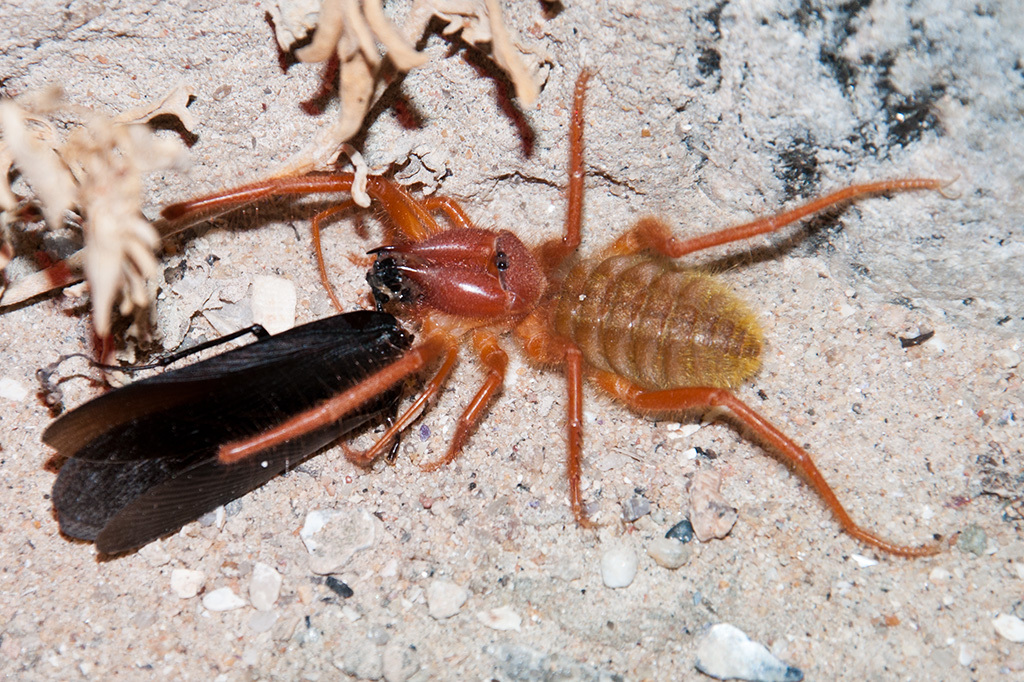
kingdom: Animalia
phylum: Arthropoda
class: Insecta
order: Blattodea
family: Blattidae
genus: Deropeltis
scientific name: Deropeltis erythrocephala
